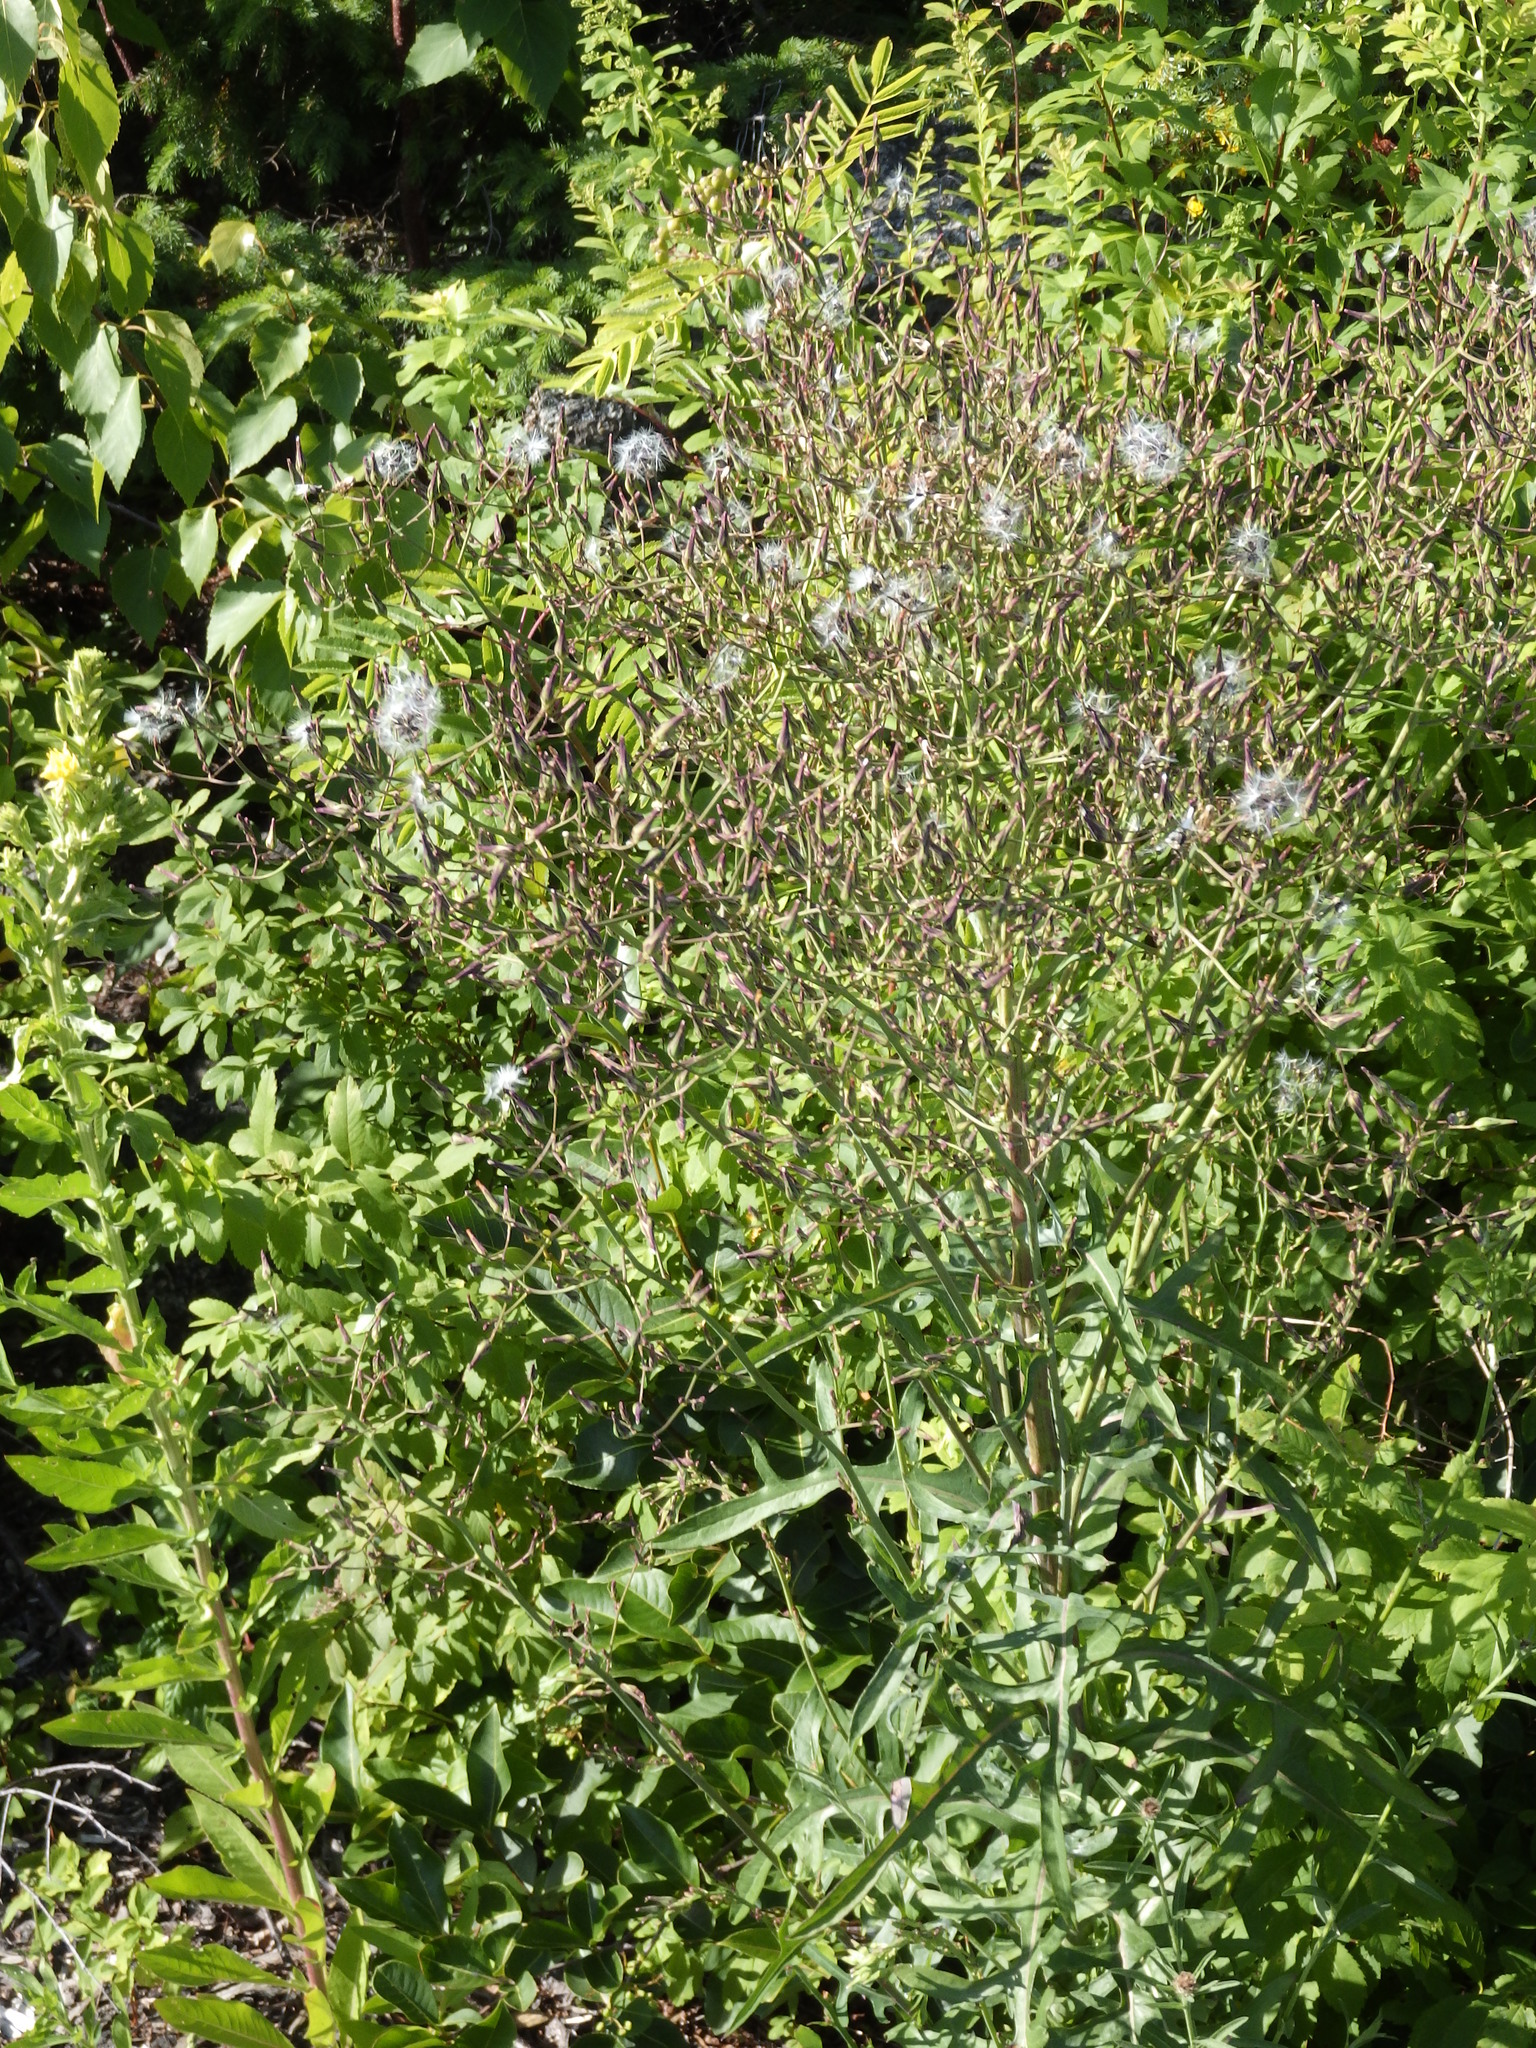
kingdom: Plantae
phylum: Tracheophyta
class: Magnoliopsida
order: Asterales
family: Asteraceae
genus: Lactuca
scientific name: Lactuca canadensis
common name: Canada lettuce
